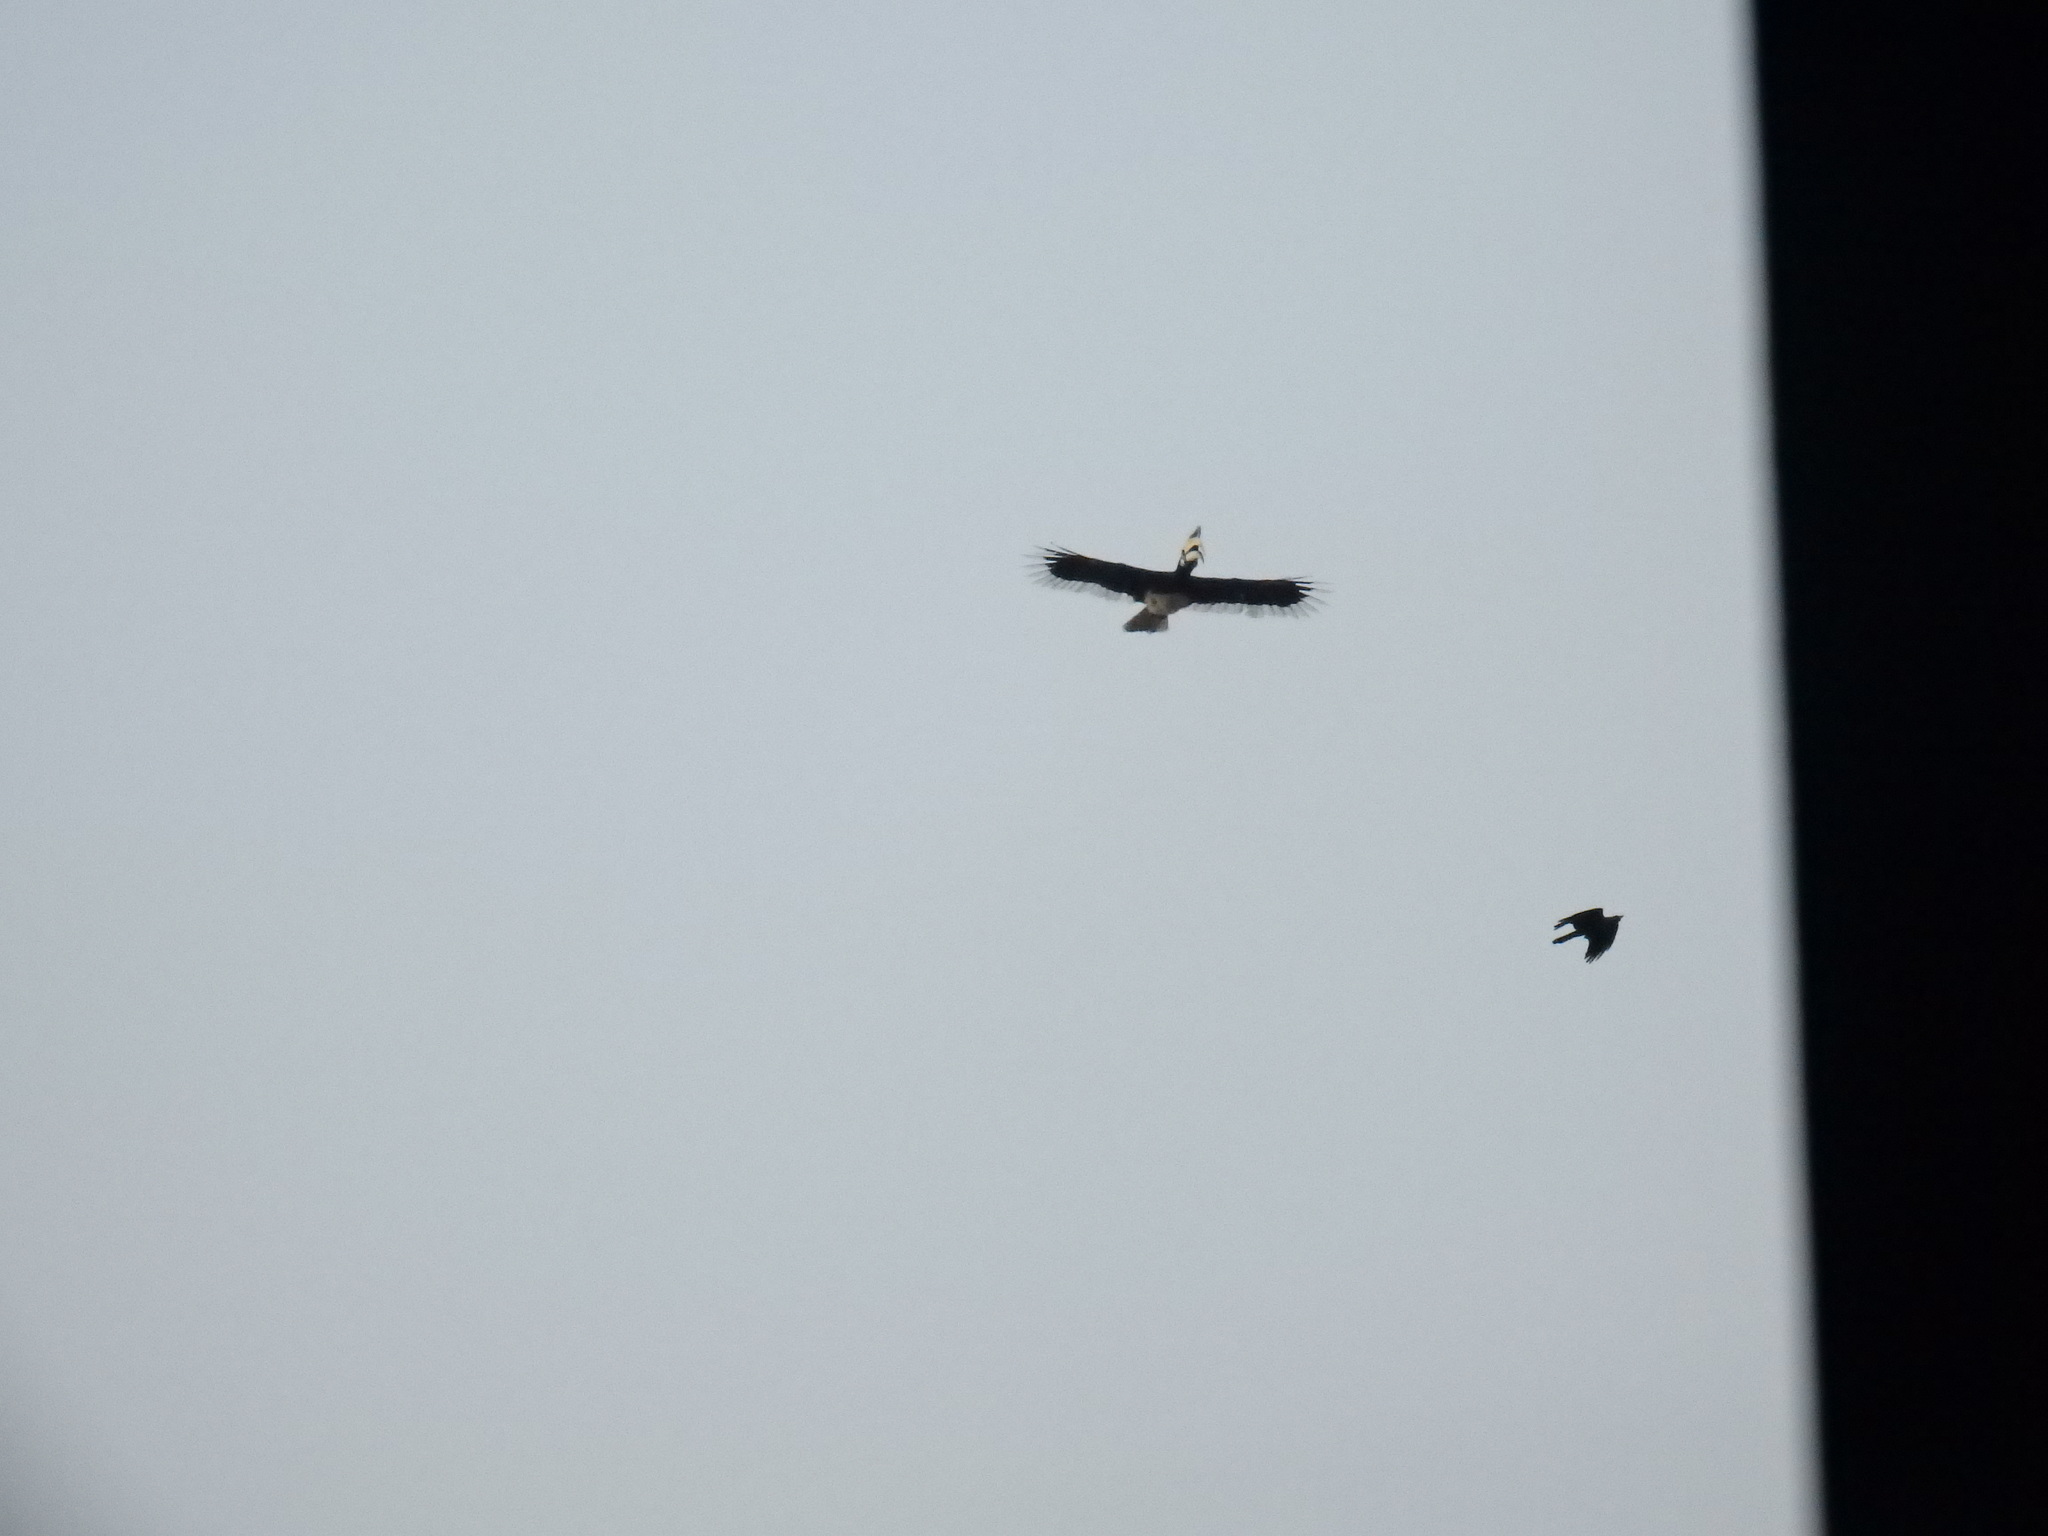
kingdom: Animalia
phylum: Chordata
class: Aves
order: Bucerotiformes
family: Bucerotidae
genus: Anthracoceros
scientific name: Anthracoceros albirostris
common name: Oriental pied-hornbill
